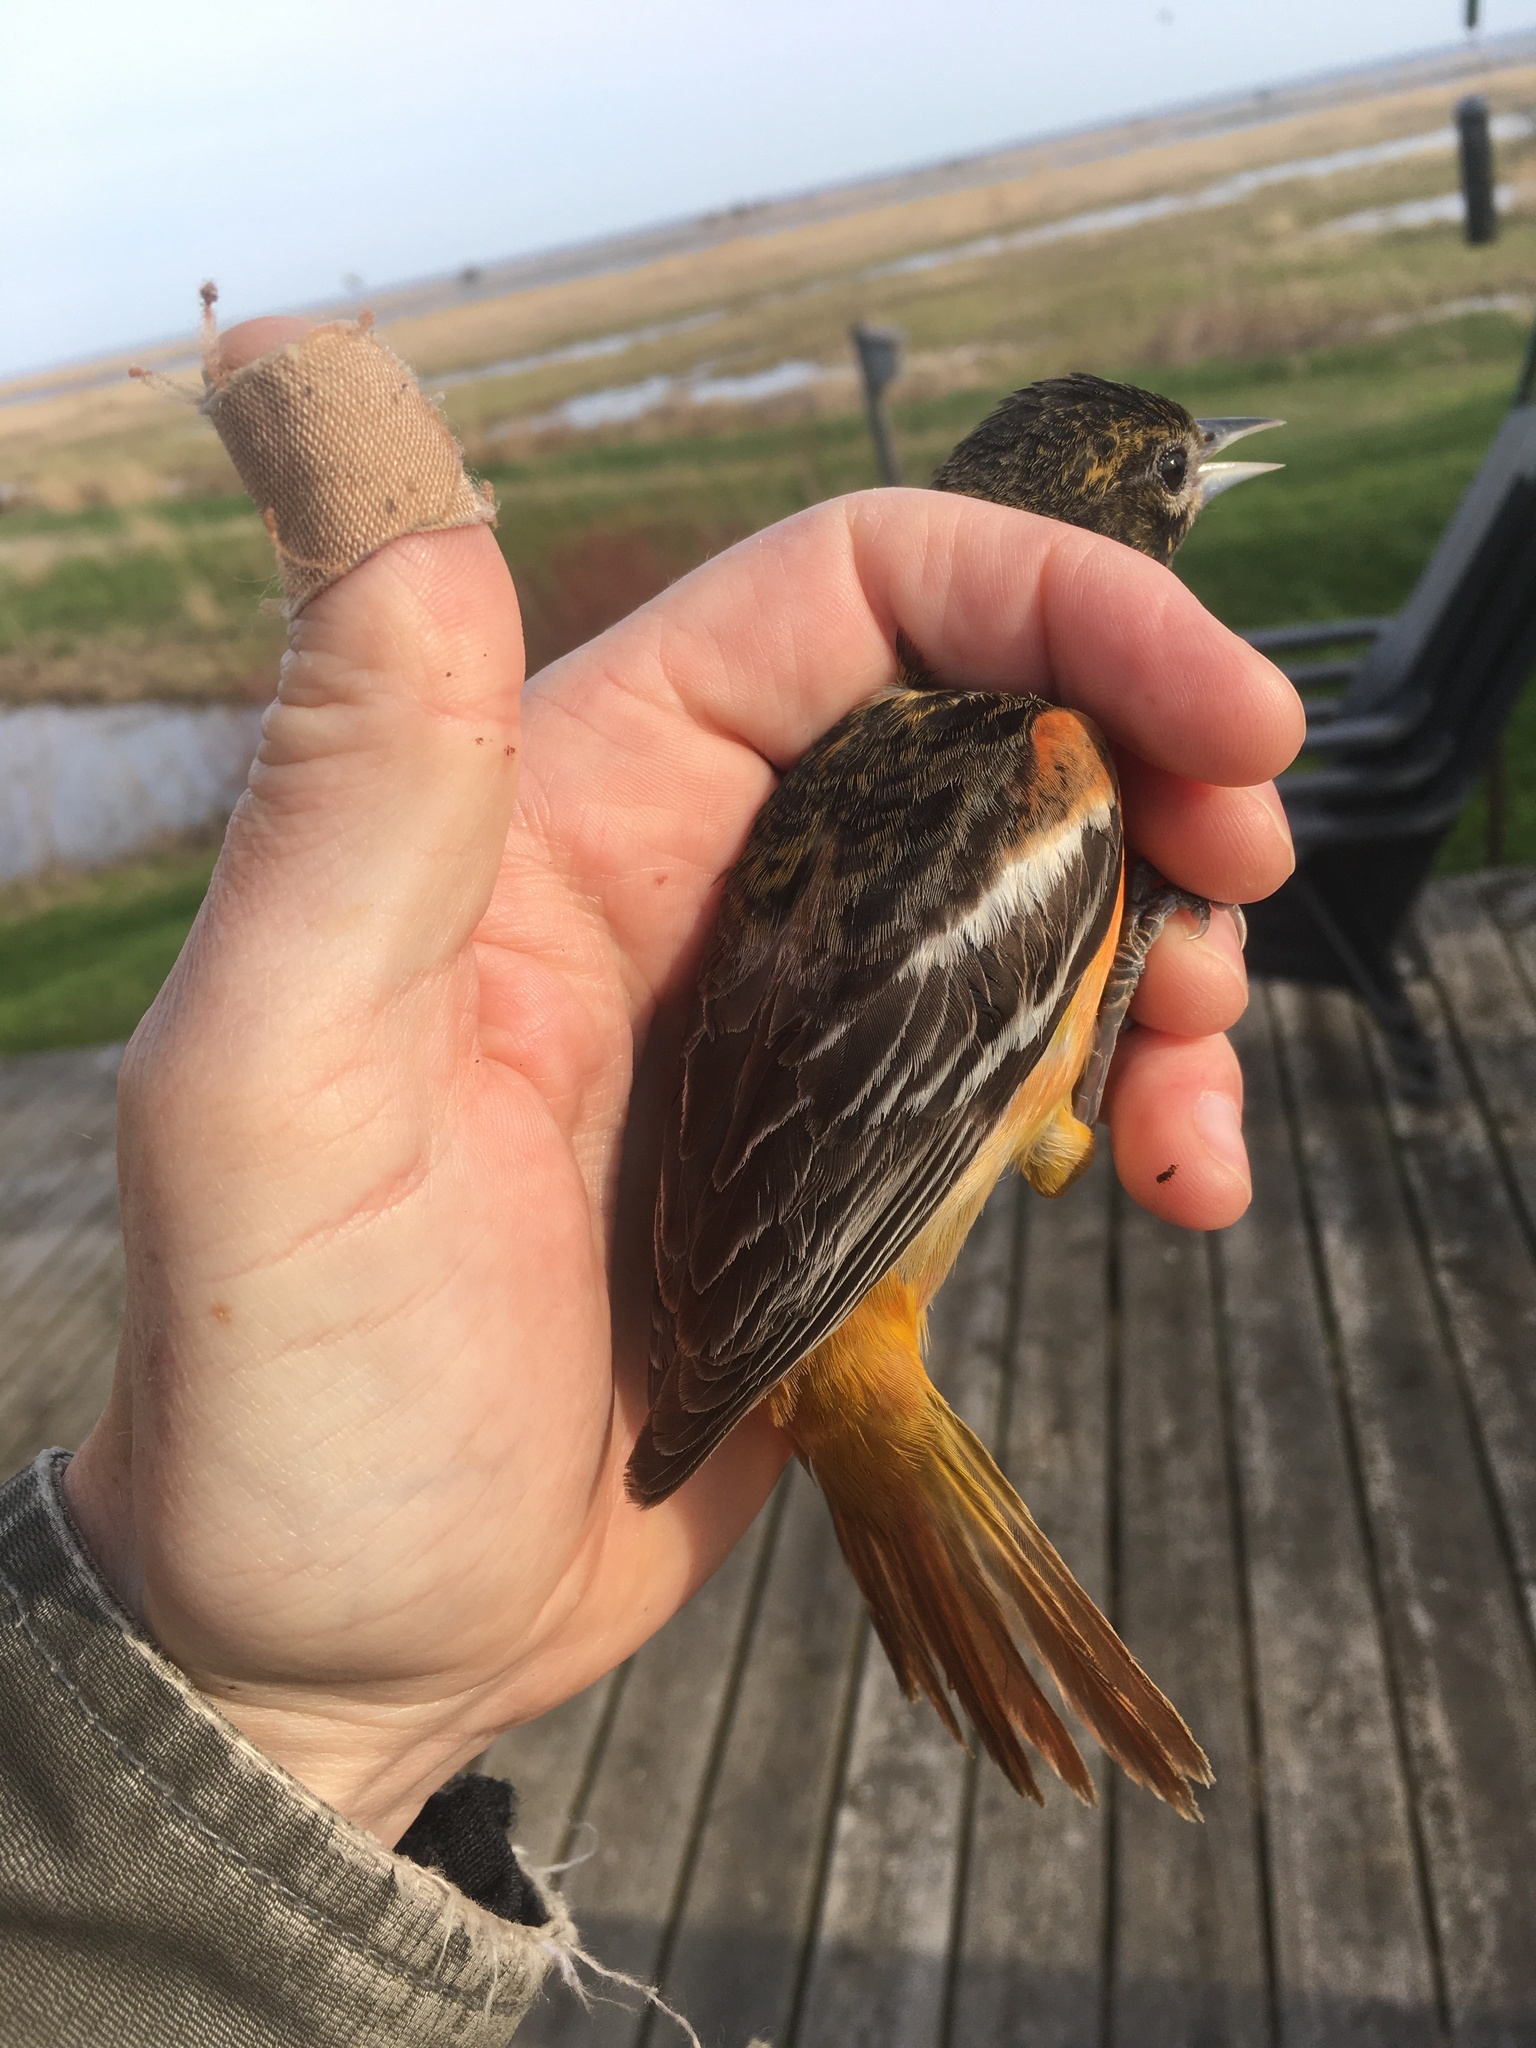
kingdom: Animalia
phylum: Chordata
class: Aves
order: Passeriformes
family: Icteridae
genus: Icterus
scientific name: Icterus galbula
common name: Baltimore oriole
